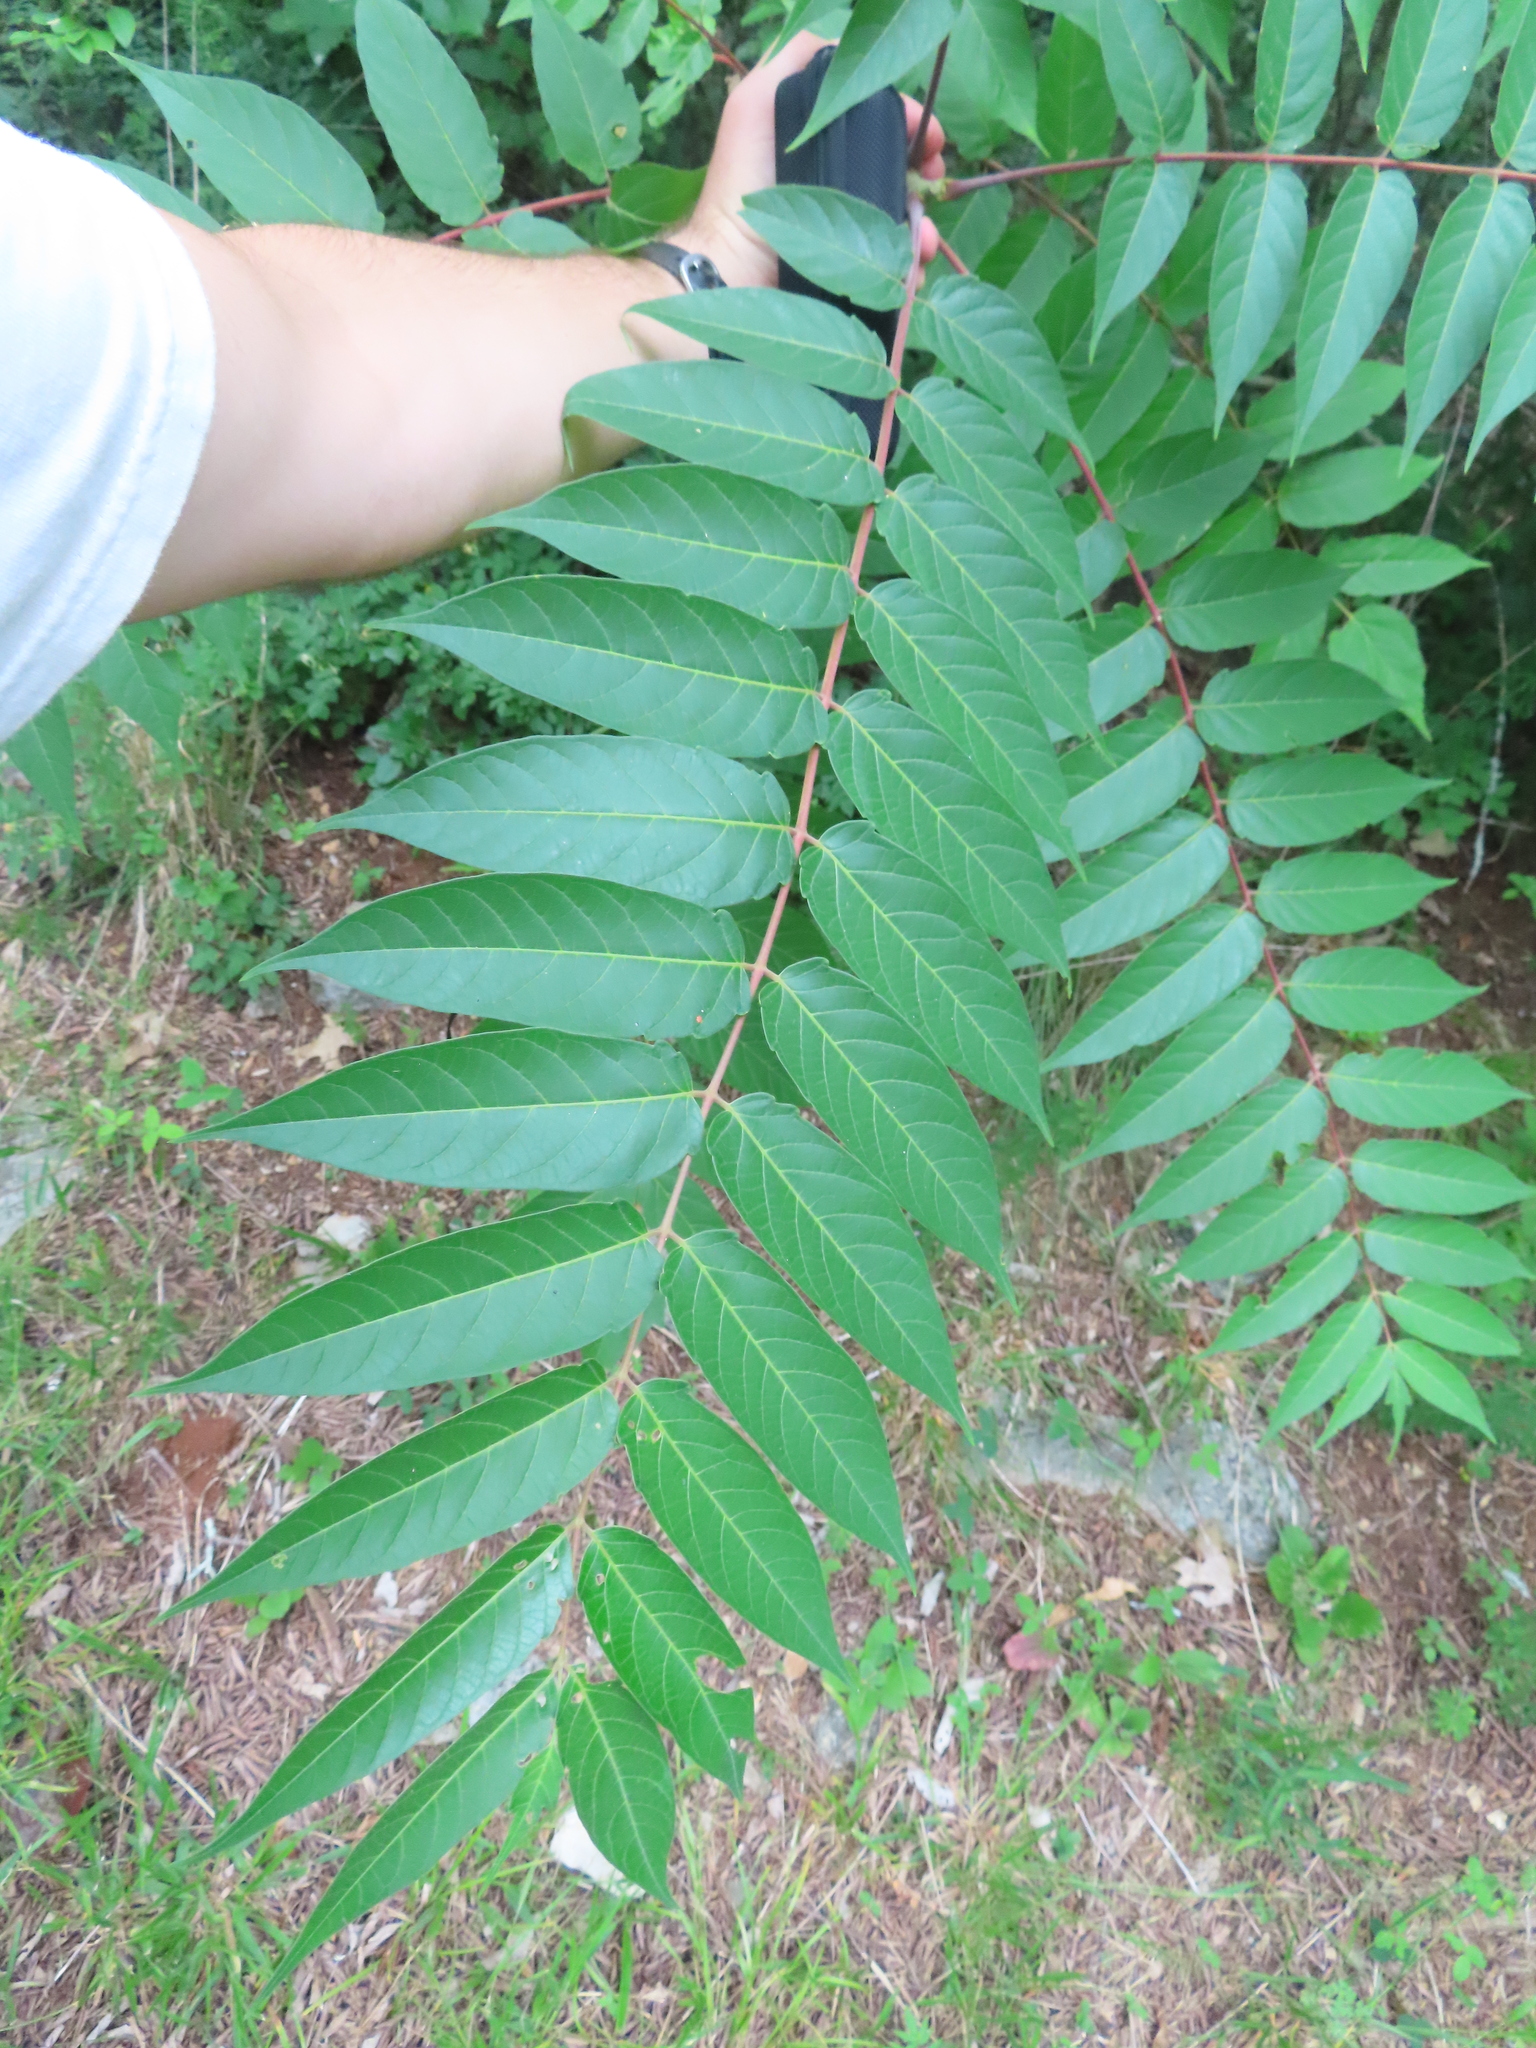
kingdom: Plantae
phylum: Tracheophyta
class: Magnoliopsida
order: Sapindales
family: Simaroubaceae
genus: Ailanthus
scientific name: Ailanthus altissima
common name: Tree-of-heaven
